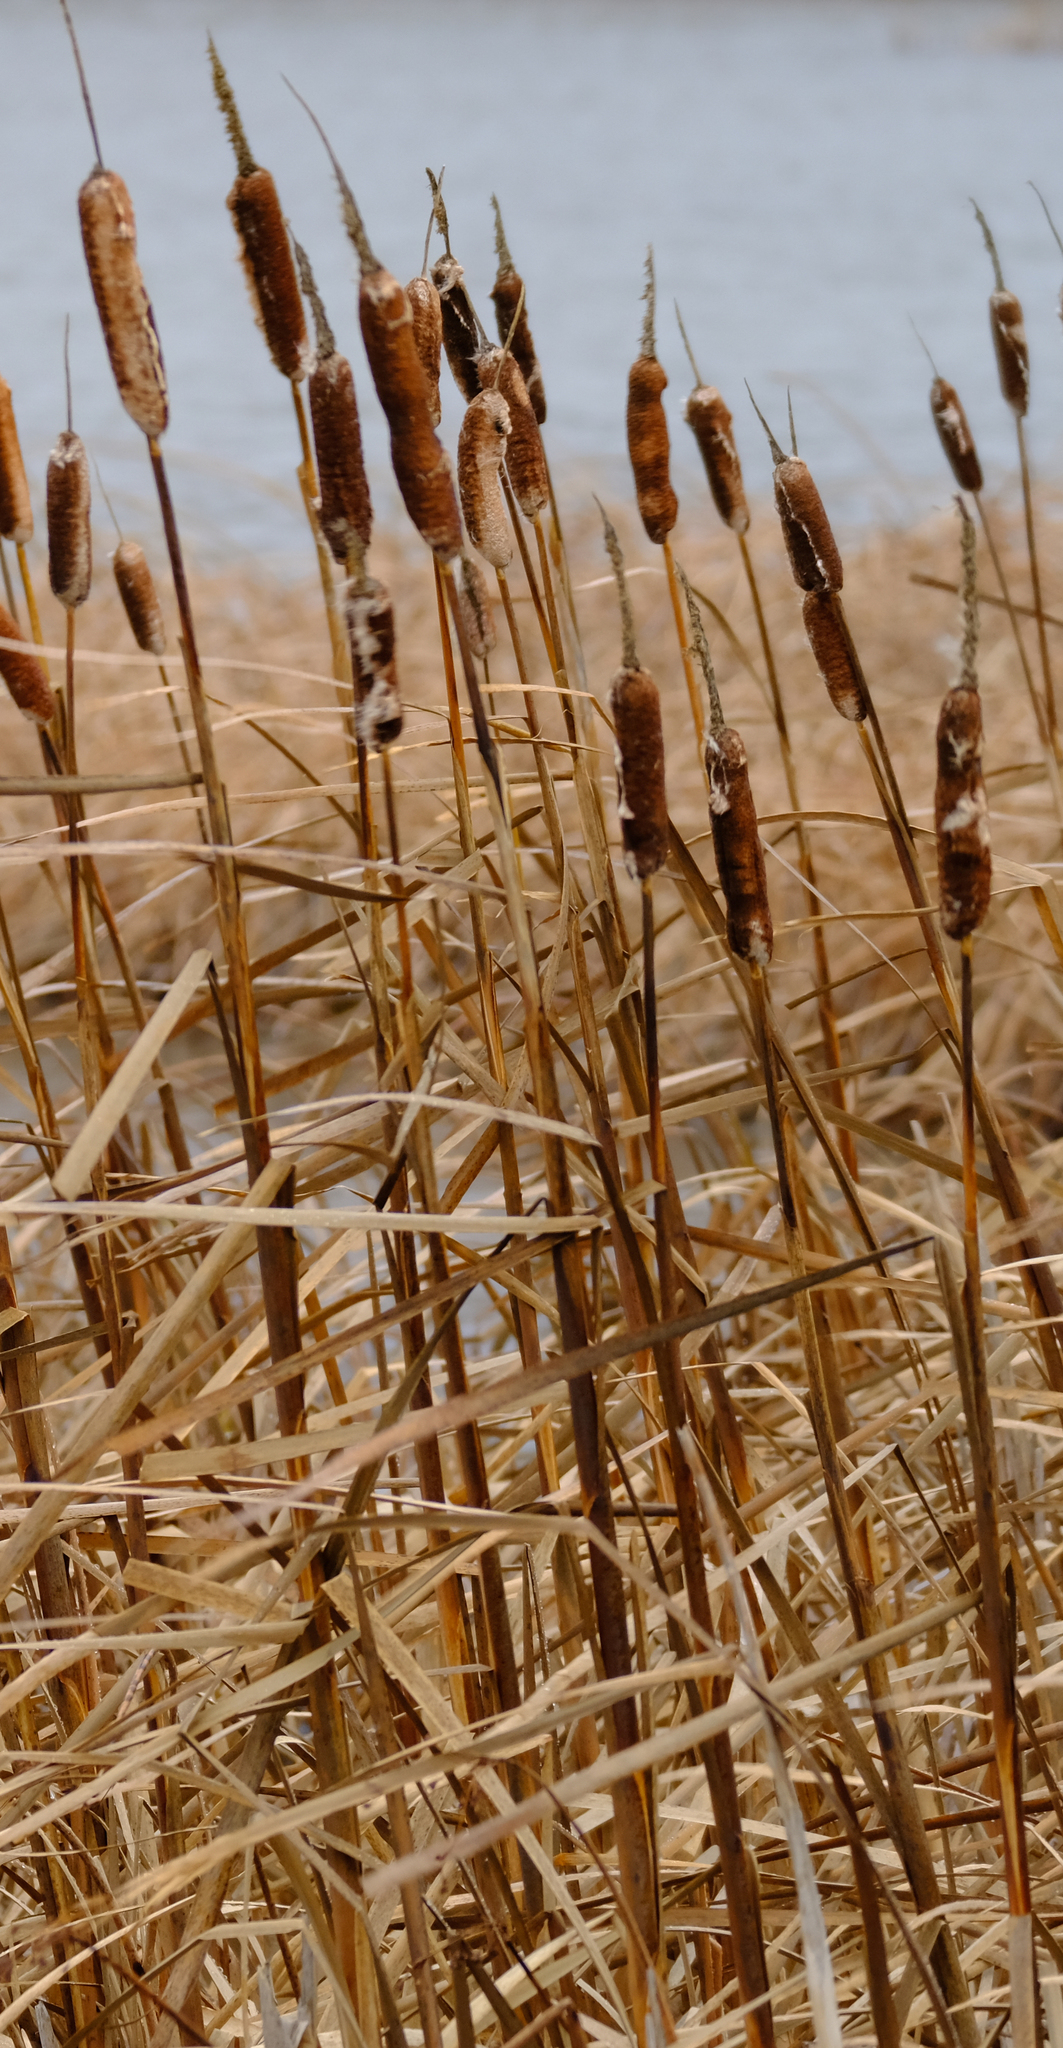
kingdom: Plantae
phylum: Tracheophyta
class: Liliopsida
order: Poales
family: Typhaceae
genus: Typha
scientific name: Typha latifolia
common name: Broadleaf cattail
